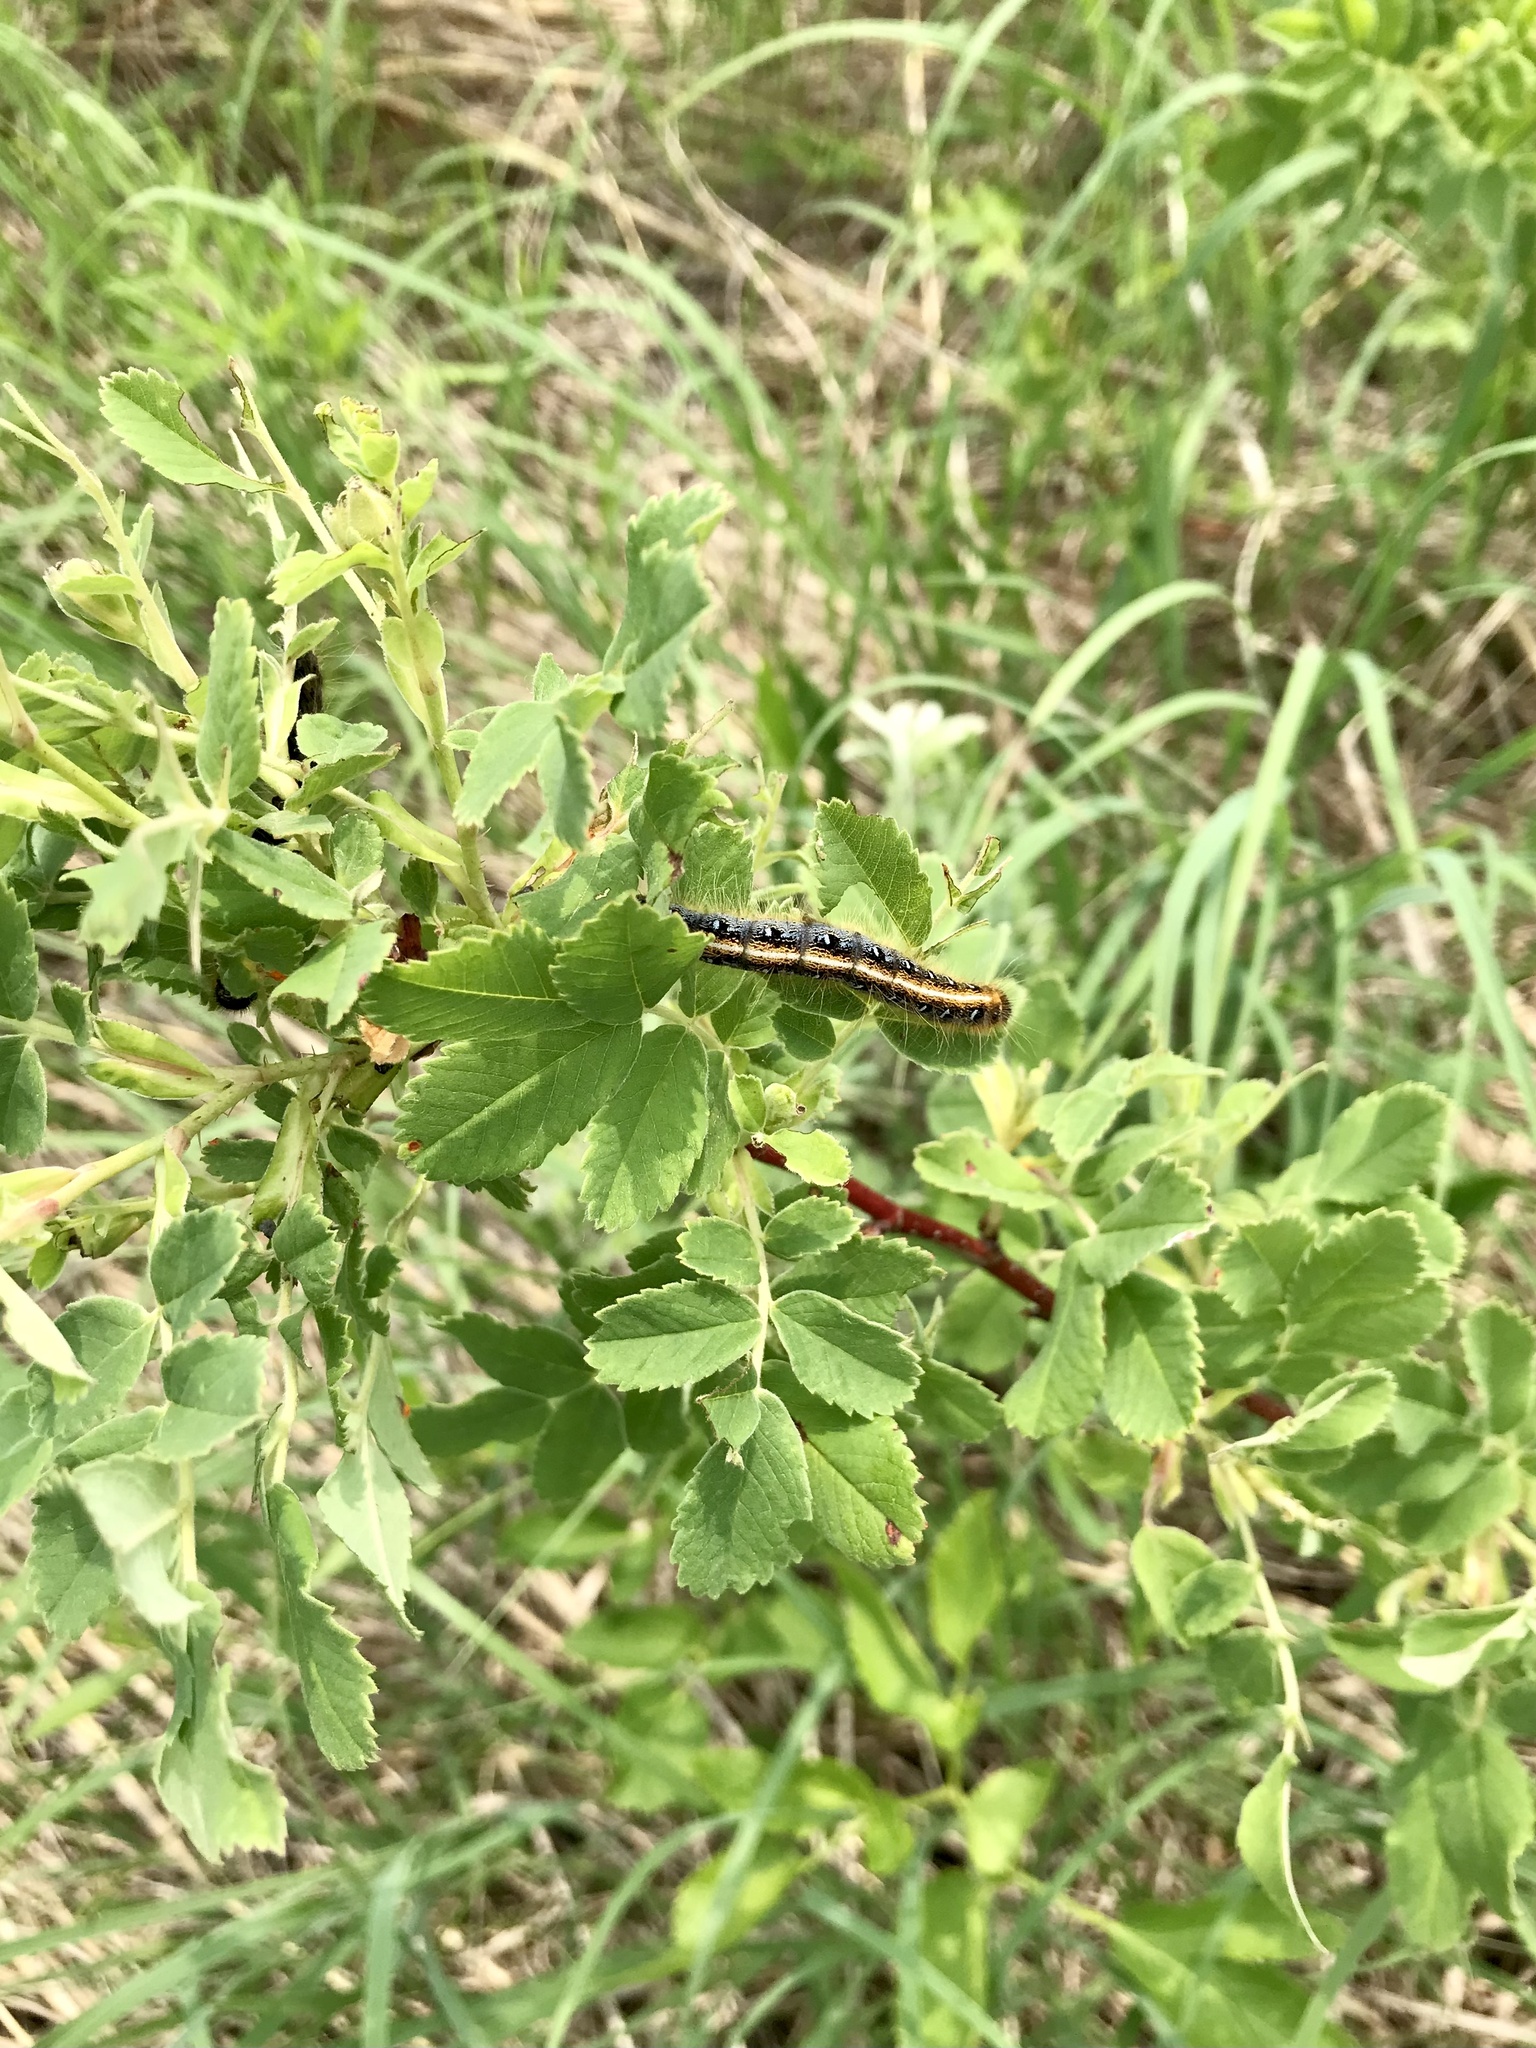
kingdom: Animalia
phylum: Arthropoda
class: Insecta
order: Lepidoptera
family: Lasiocampidae
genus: Malacosoma
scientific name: Malacosoma americana
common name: Eastern tent caterpillar moth
